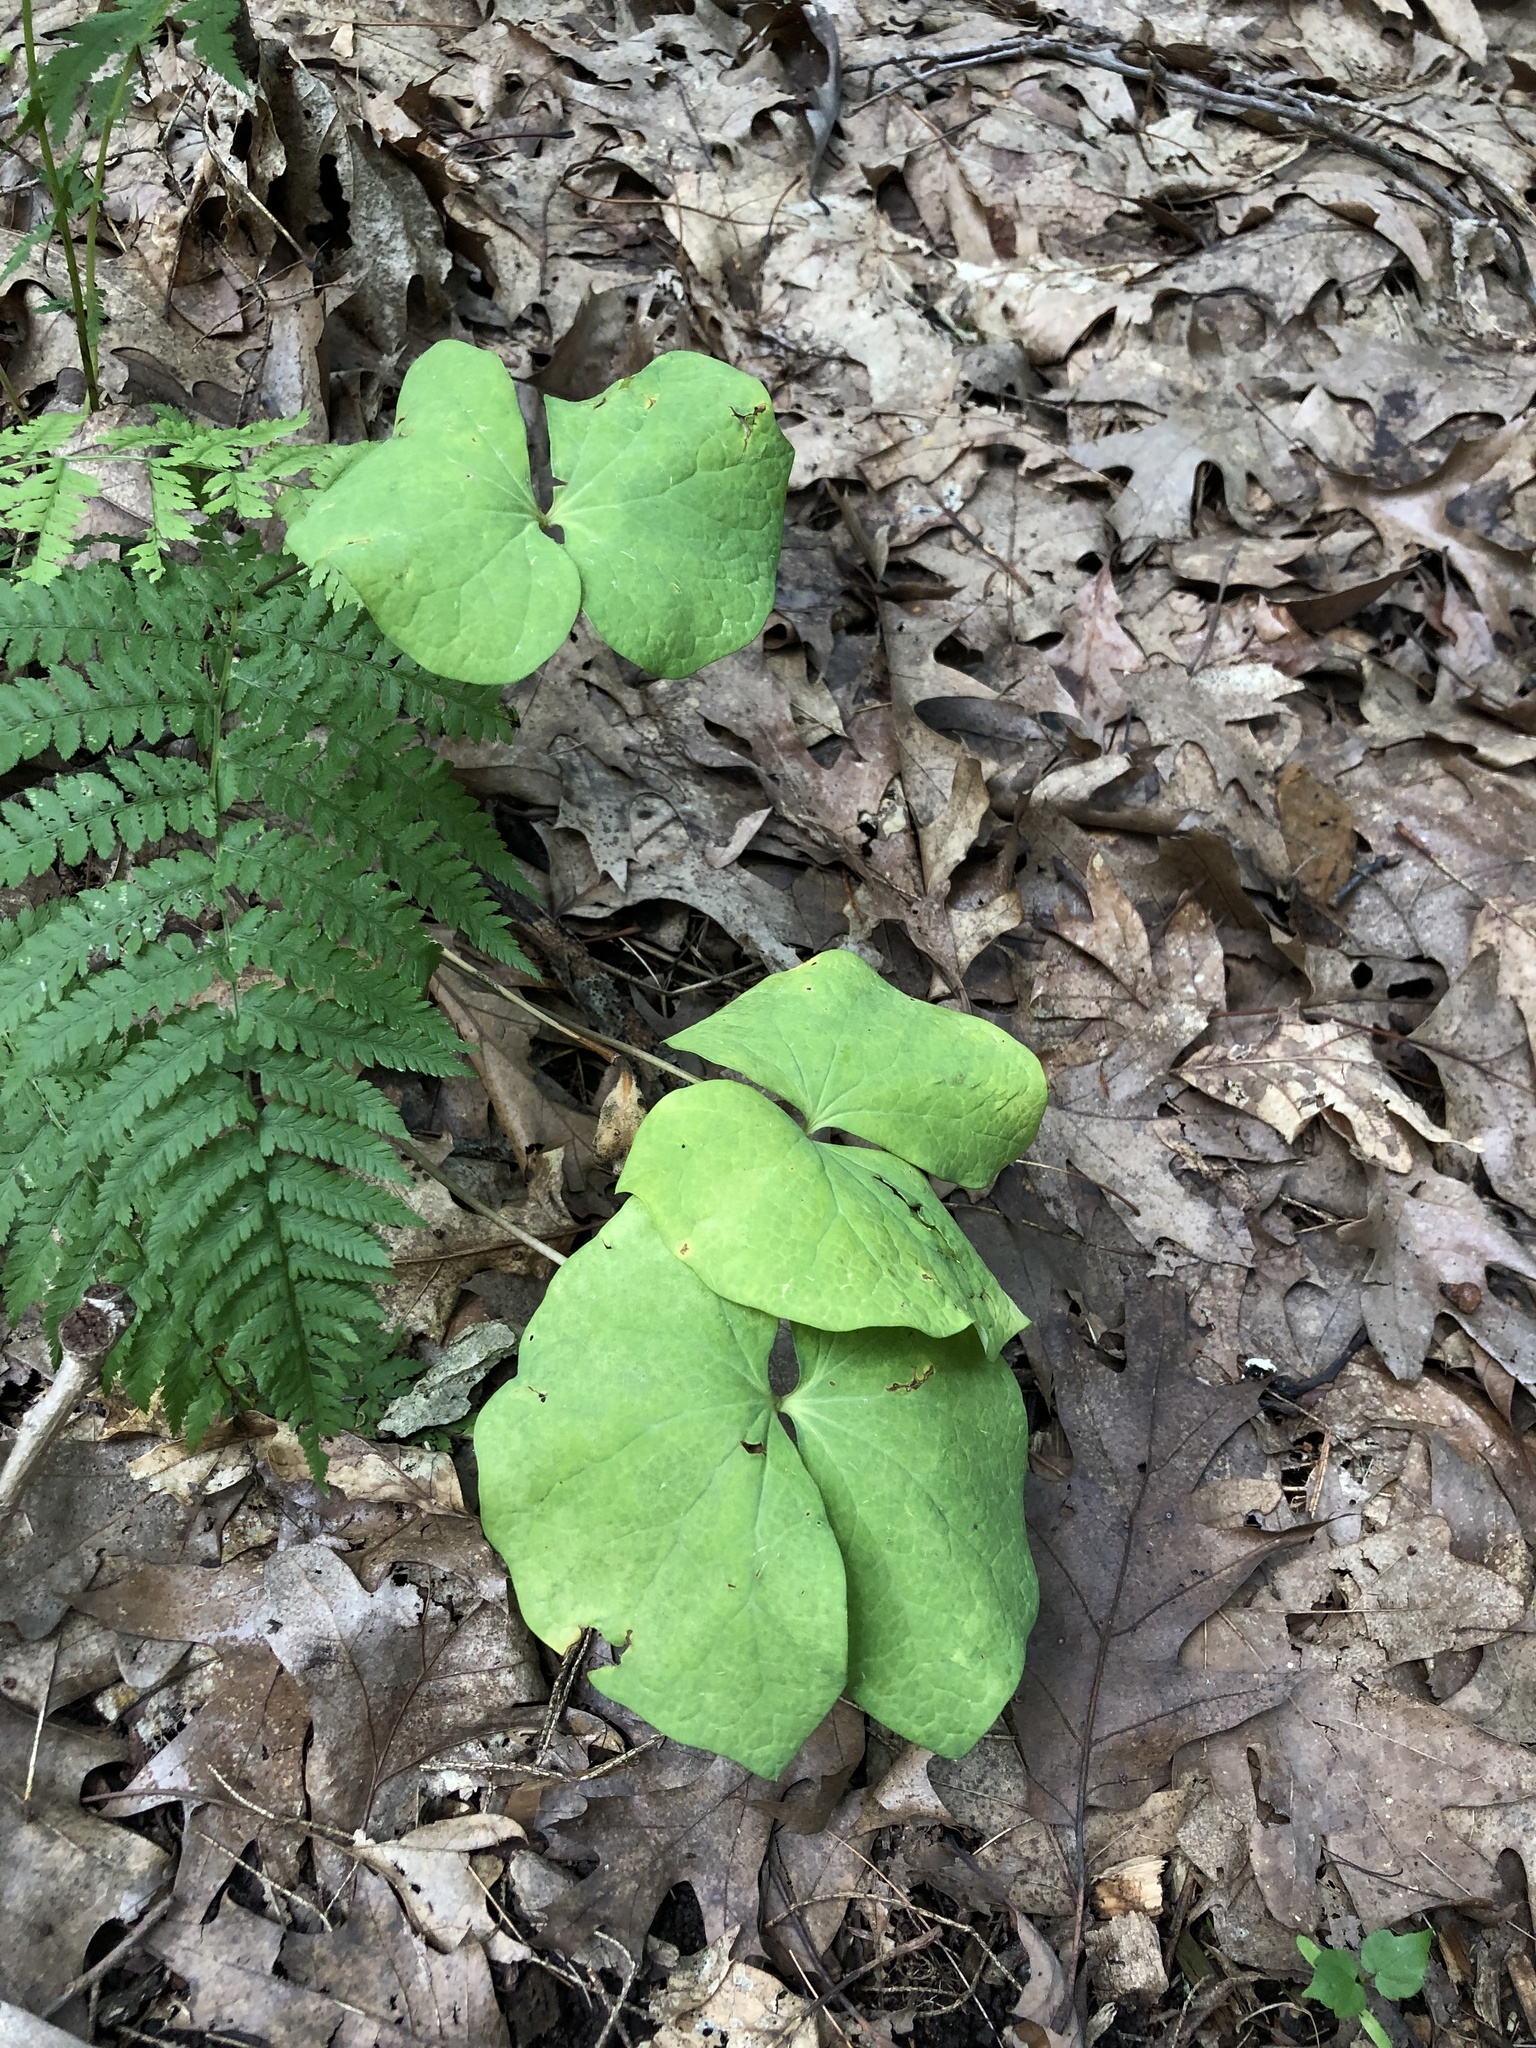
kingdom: Plantae
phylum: Tracheophyta
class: Magnoliopsida
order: Ranunculales
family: Berberidaceae
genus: Jeffersonia
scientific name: Jeffersonia diphylla
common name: Rheumatism-root
